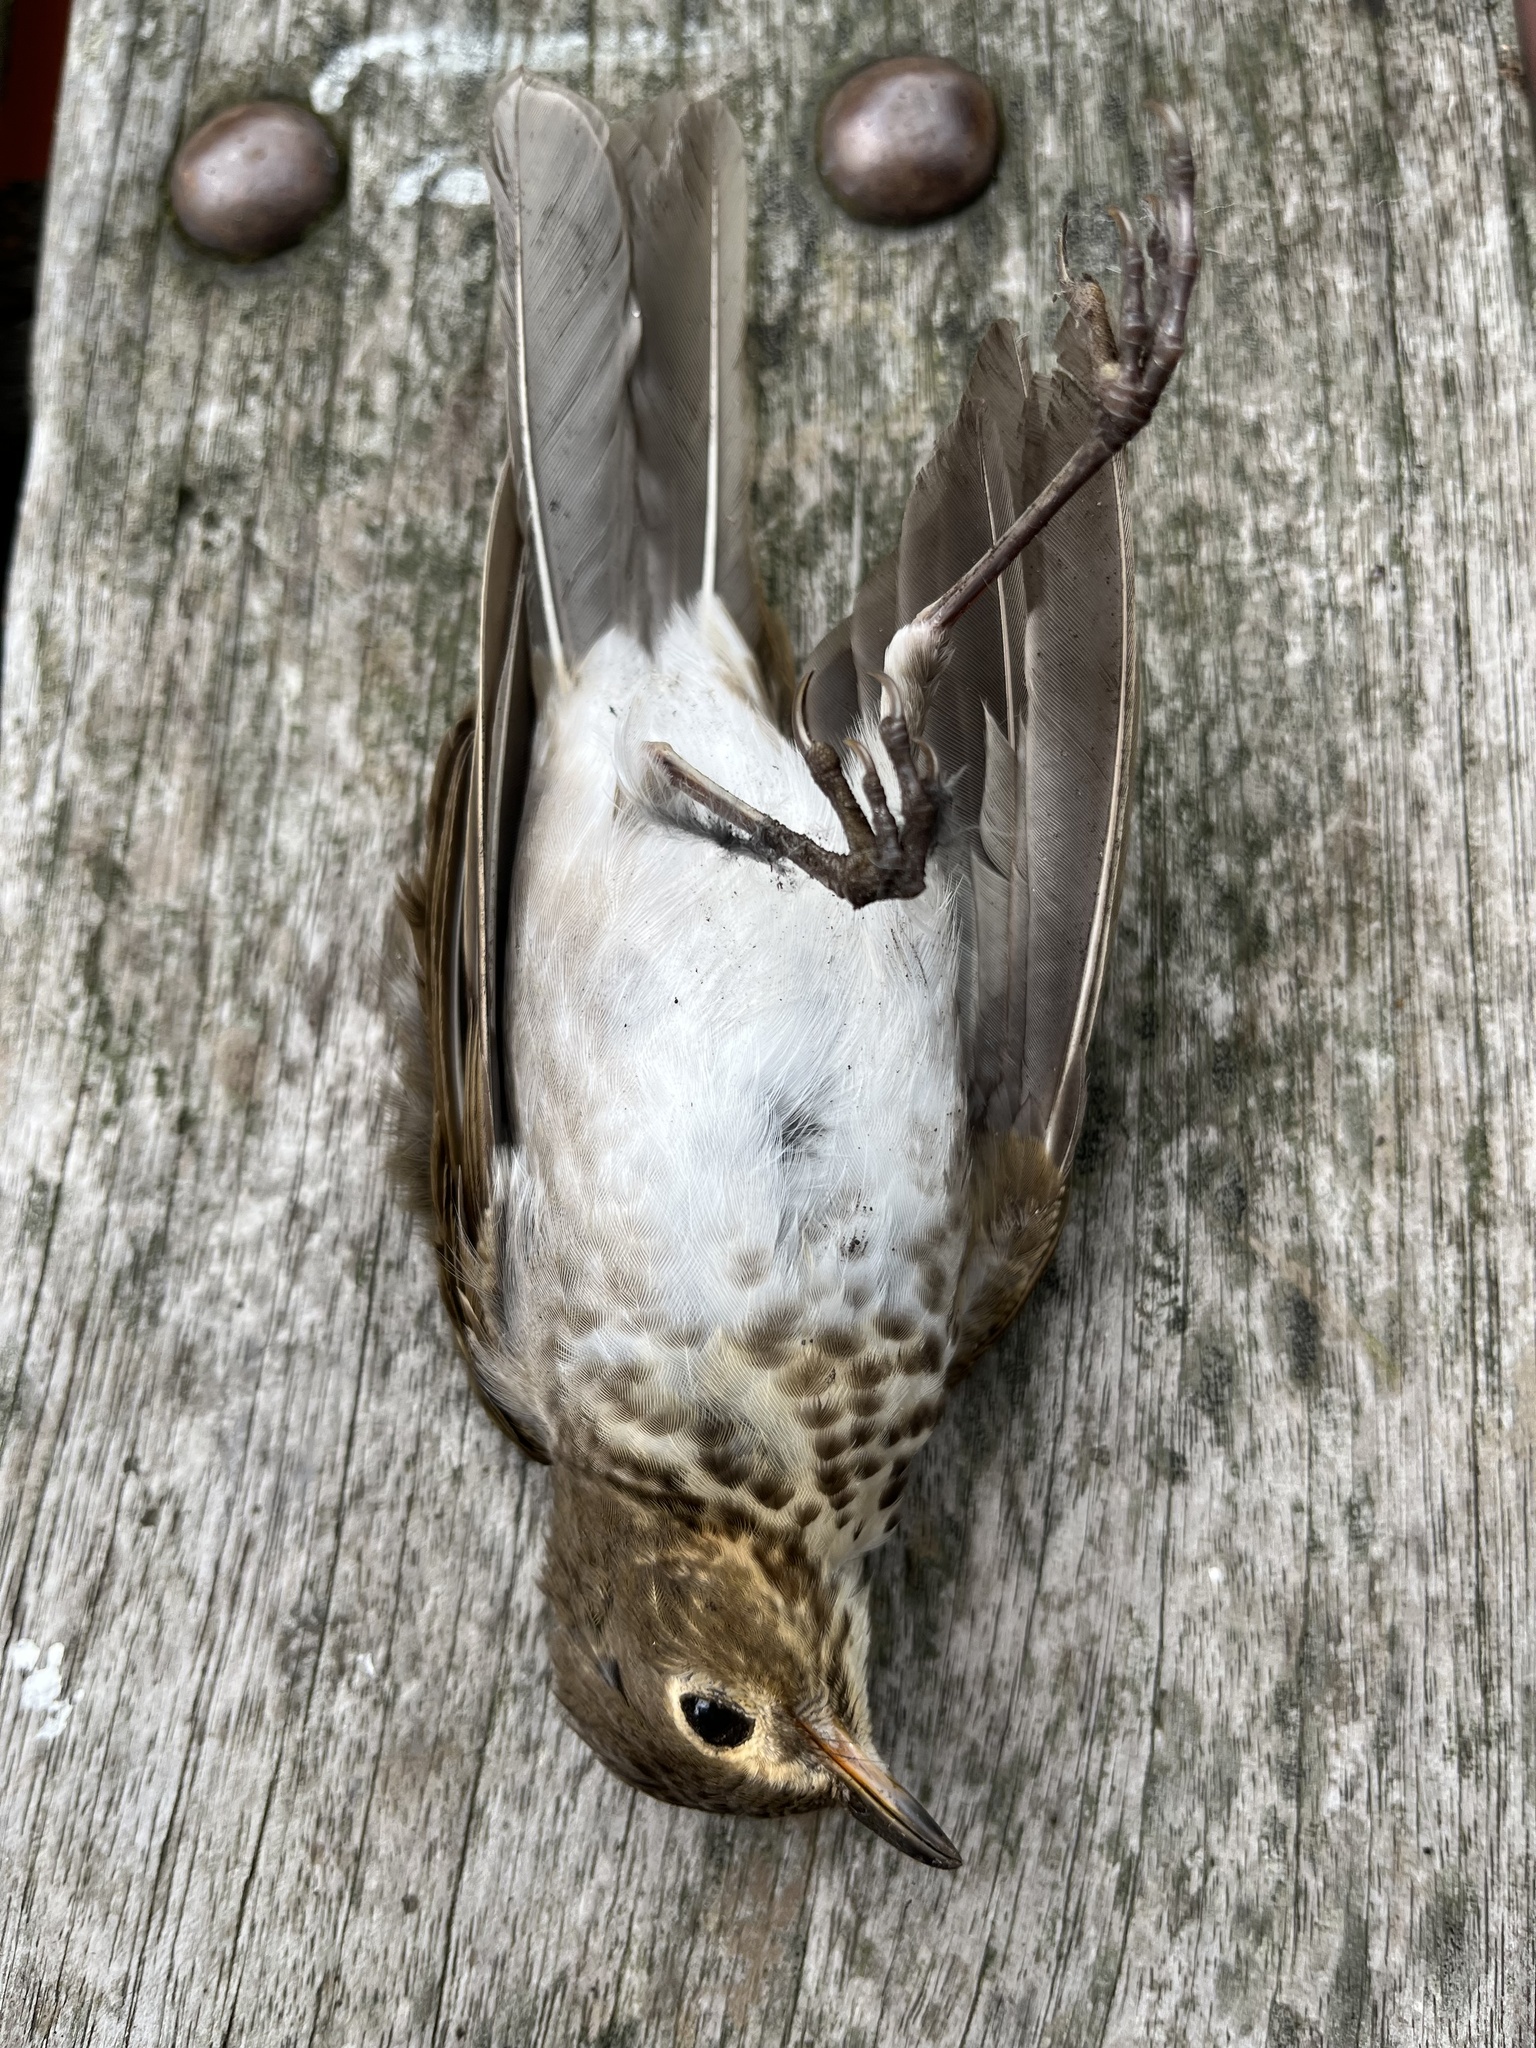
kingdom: Animalia
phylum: Chordata
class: Aves
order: Passeriformes
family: Turdidae
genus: Catharus
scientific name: Catharus ustulatus
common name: Swainson's thrush
